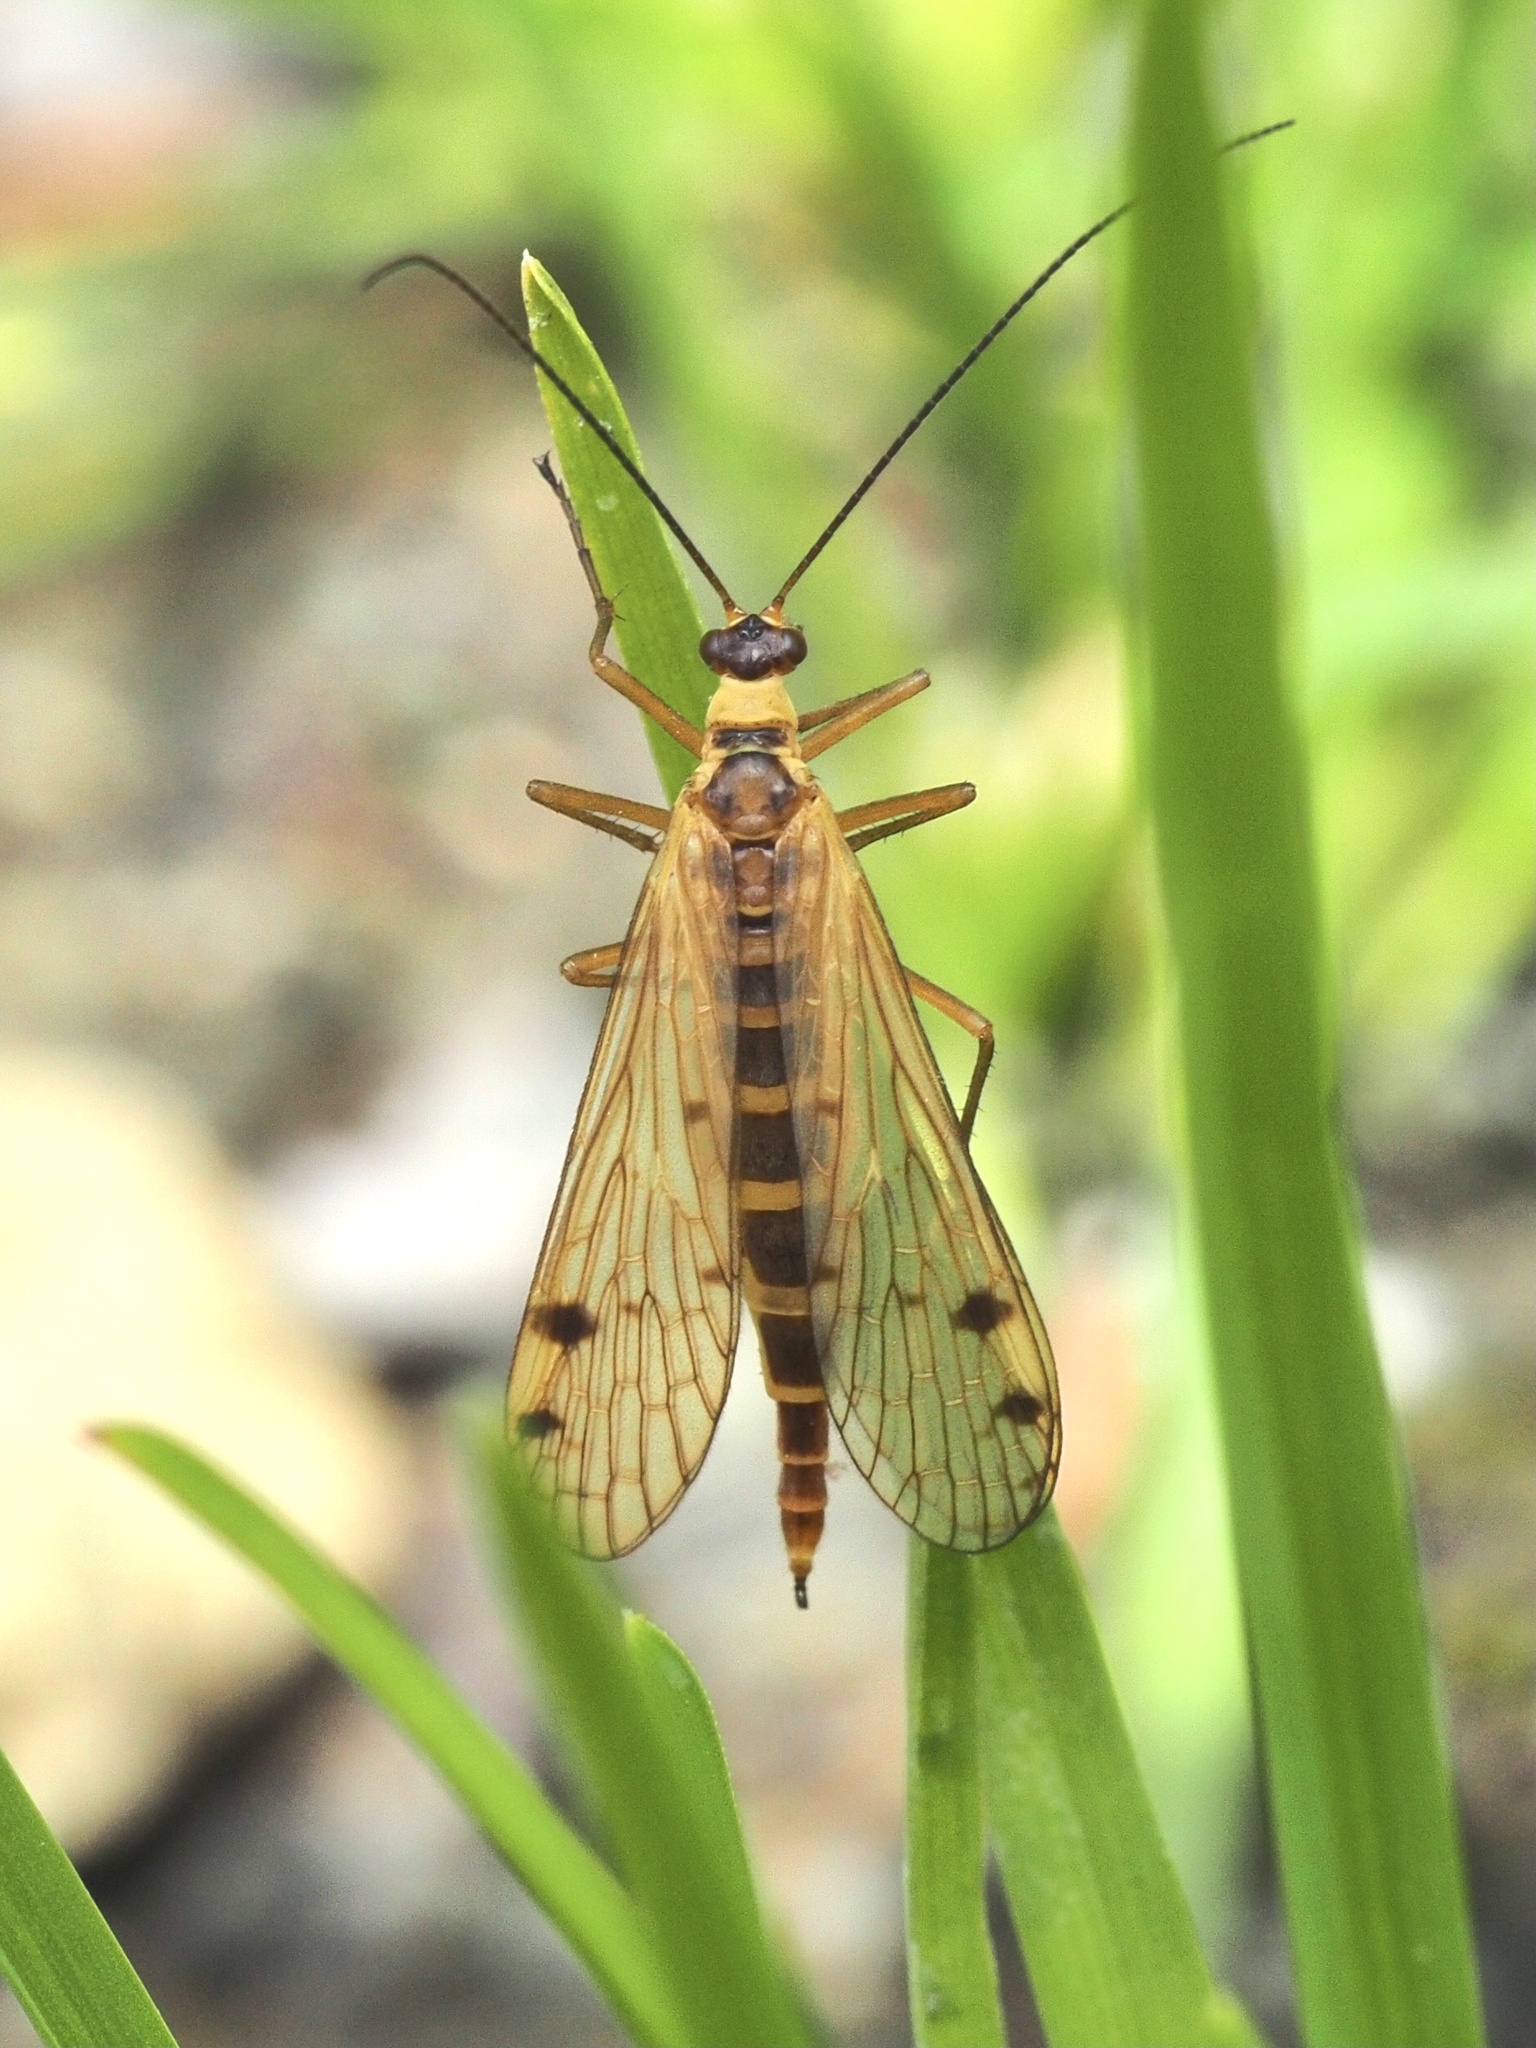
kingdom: Animalia
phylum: Arthropoda
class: Insecta
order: Mecoptera
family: Panorpidae
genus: Panorpa
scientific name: Panorpa alpina
